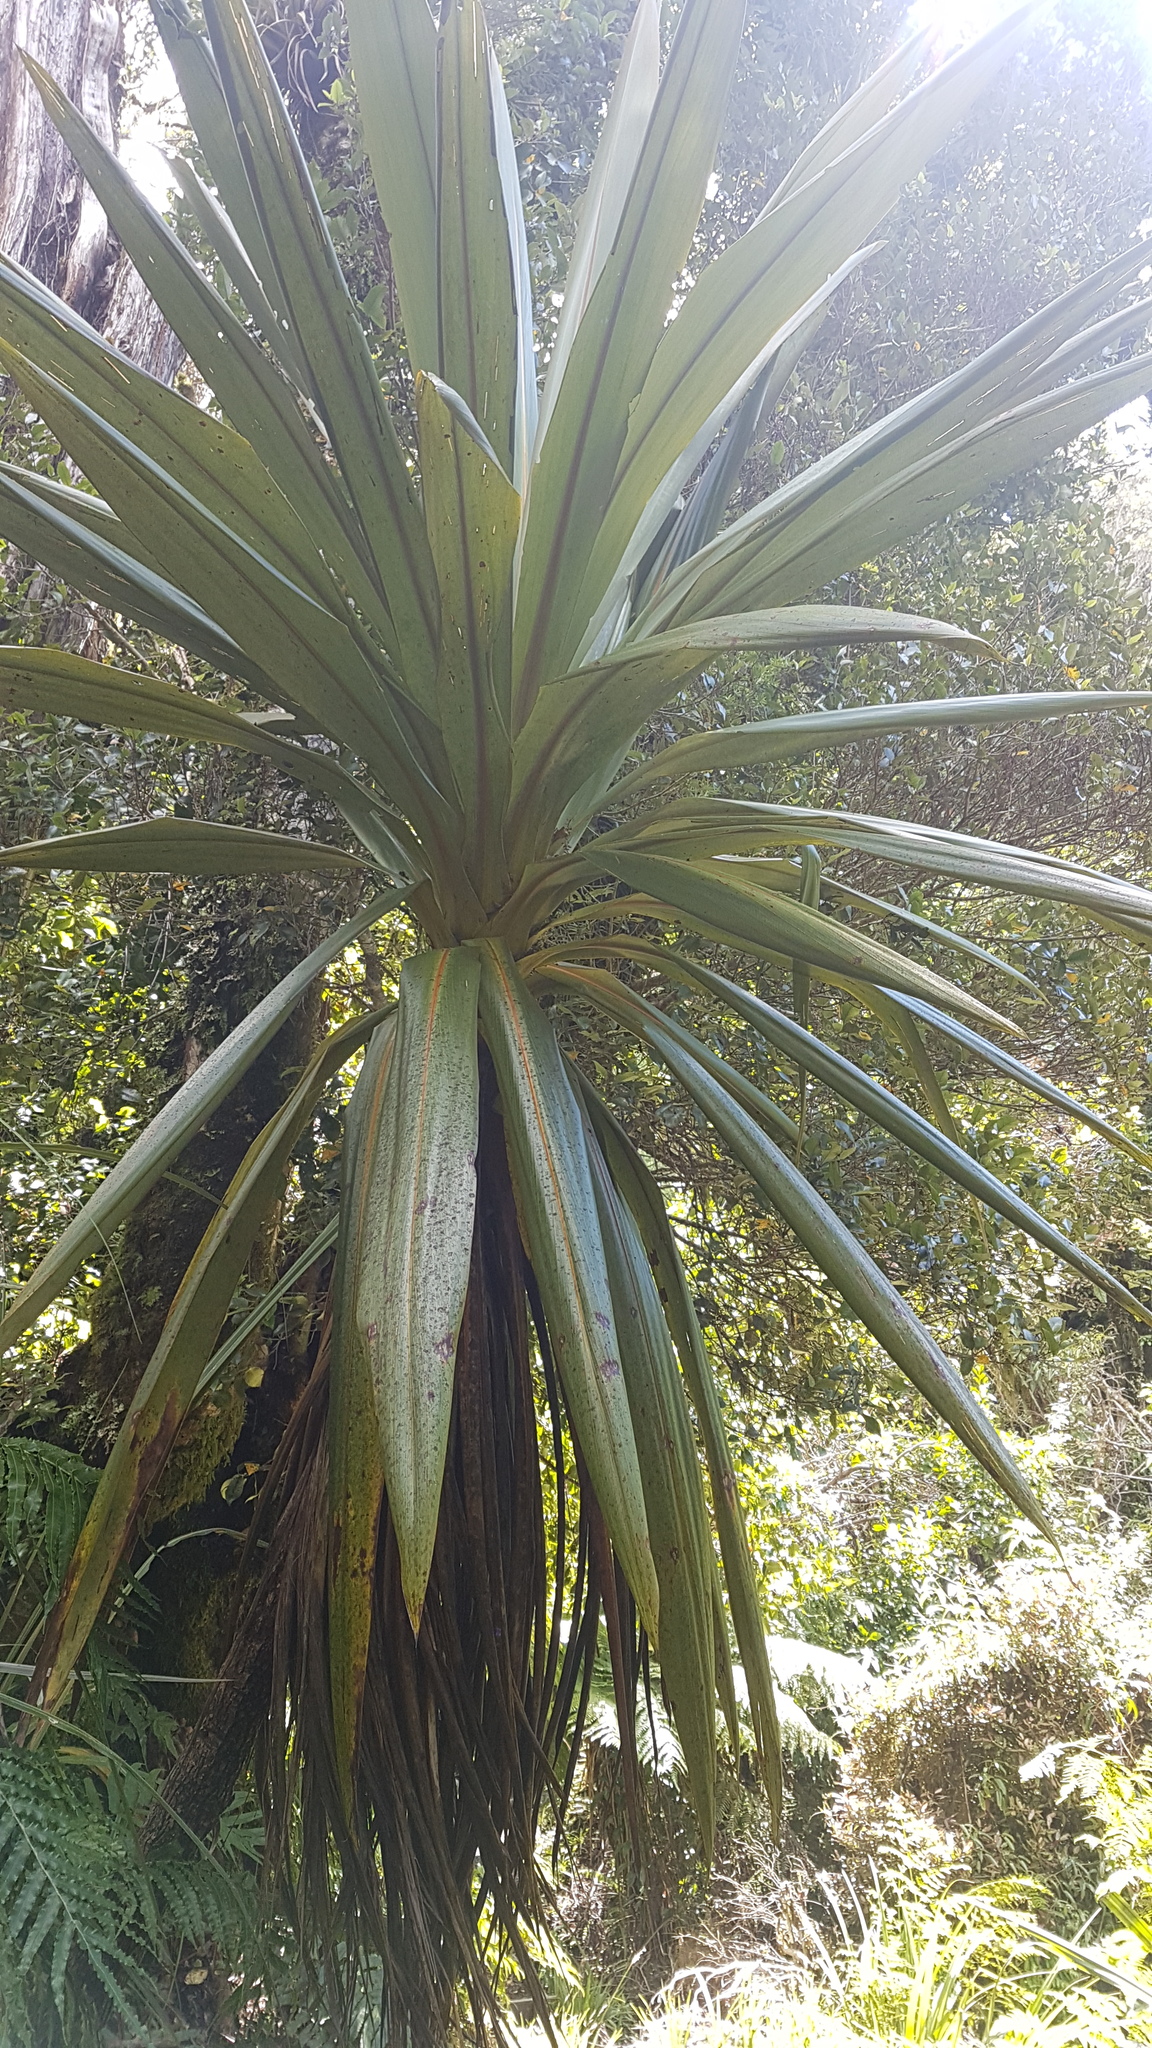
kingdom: Plantae
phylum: Tracheophyta
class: Liliopsida
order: Asparagales
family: Asparagaceae
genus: Cordyline
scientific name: Cordyline indivisa
